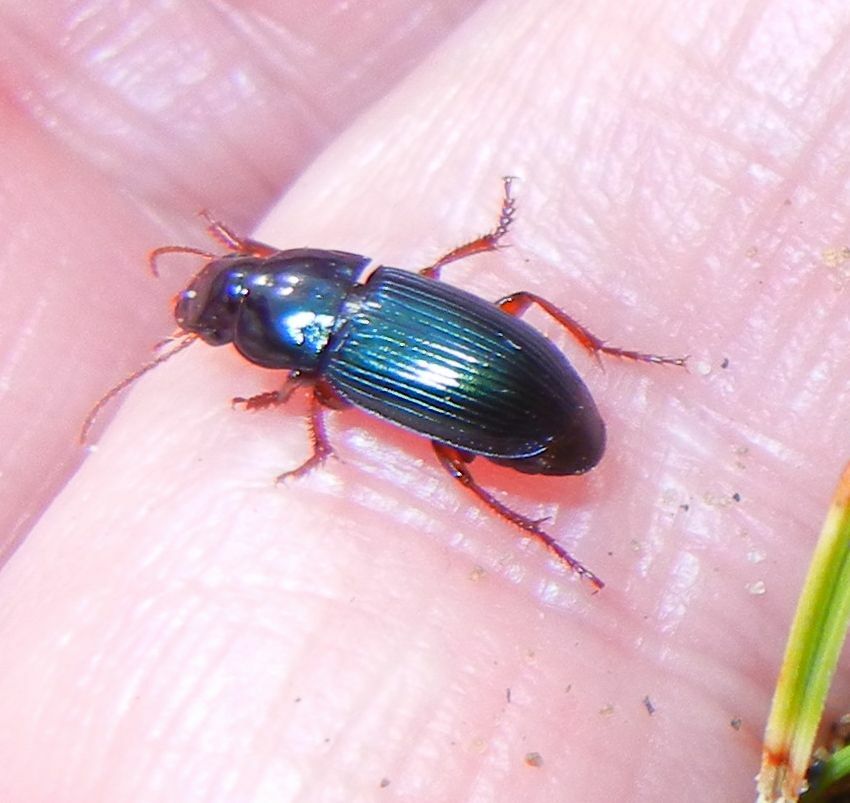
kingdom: Animalia
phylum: Arthropoda
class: Insecta
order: Coleoptera
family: Carabidae
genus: Harpalus
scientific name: Harpalus rubripes
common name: Red-legged harp ground beetle
